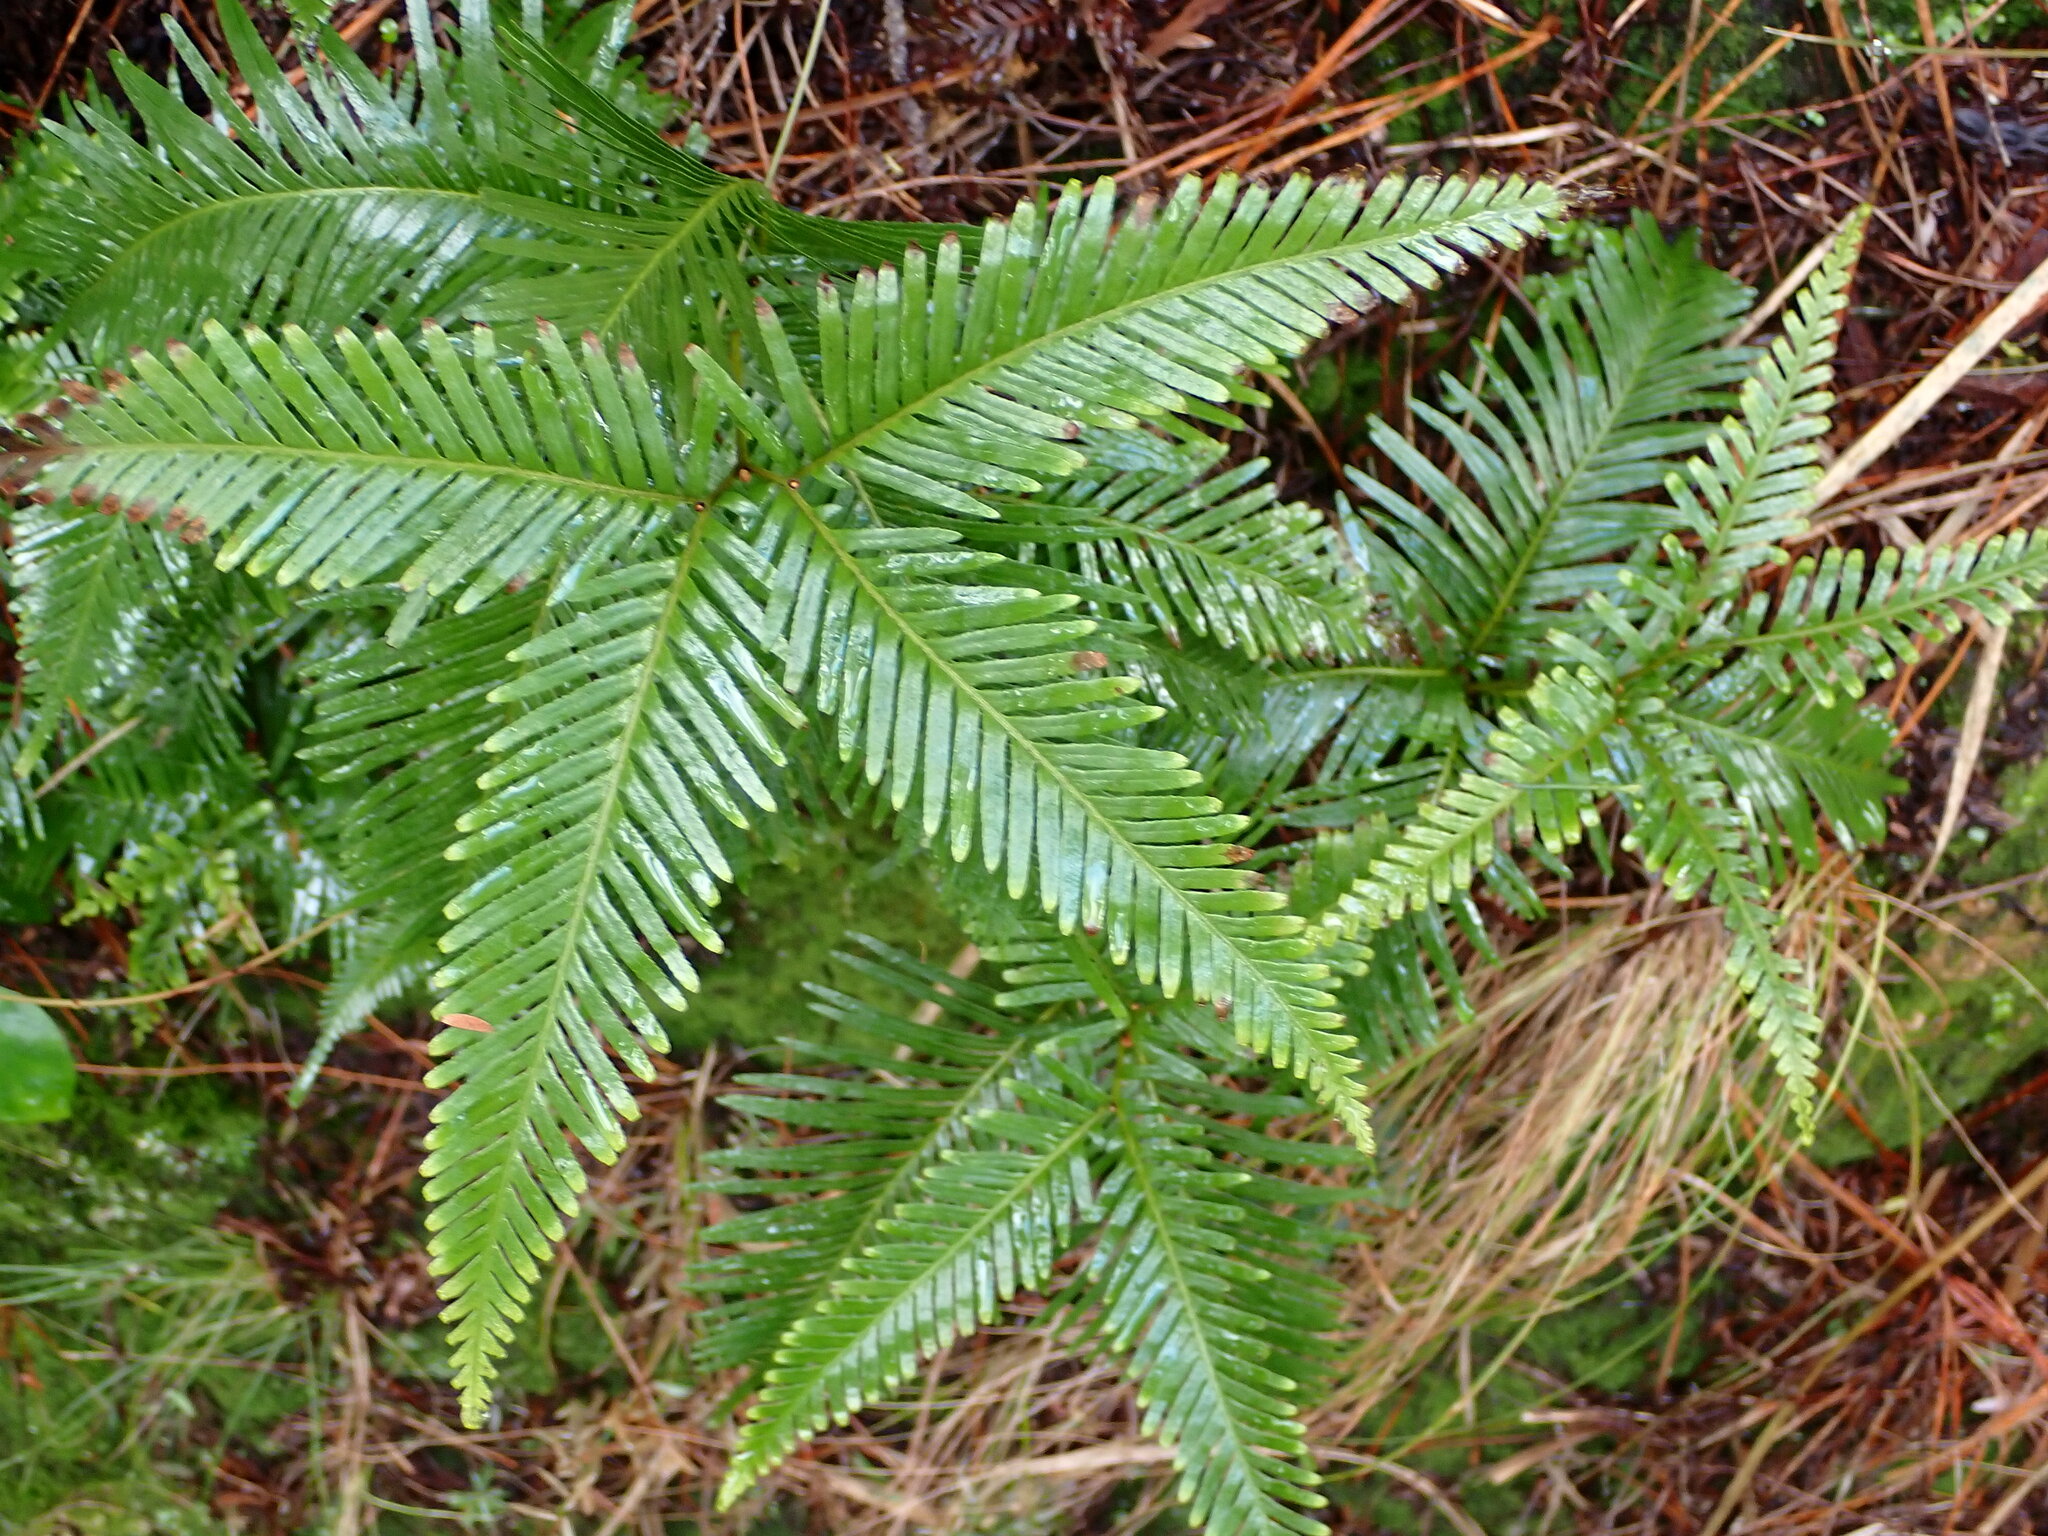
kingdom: Plantae
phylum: Tracheophyta
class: Polypodiopsida
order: Gleicheniales
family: Gleicheniaceae
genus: Sticherus
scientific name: Sticherus flabellatus
